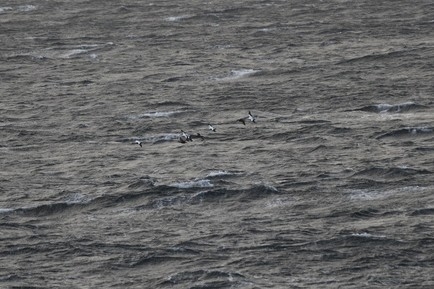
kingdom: Animalia
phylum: Chordata
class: Aves
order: Anseriformes
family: Anatidae
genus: Somateria
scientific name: Somateria mollissima
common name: Common eider
